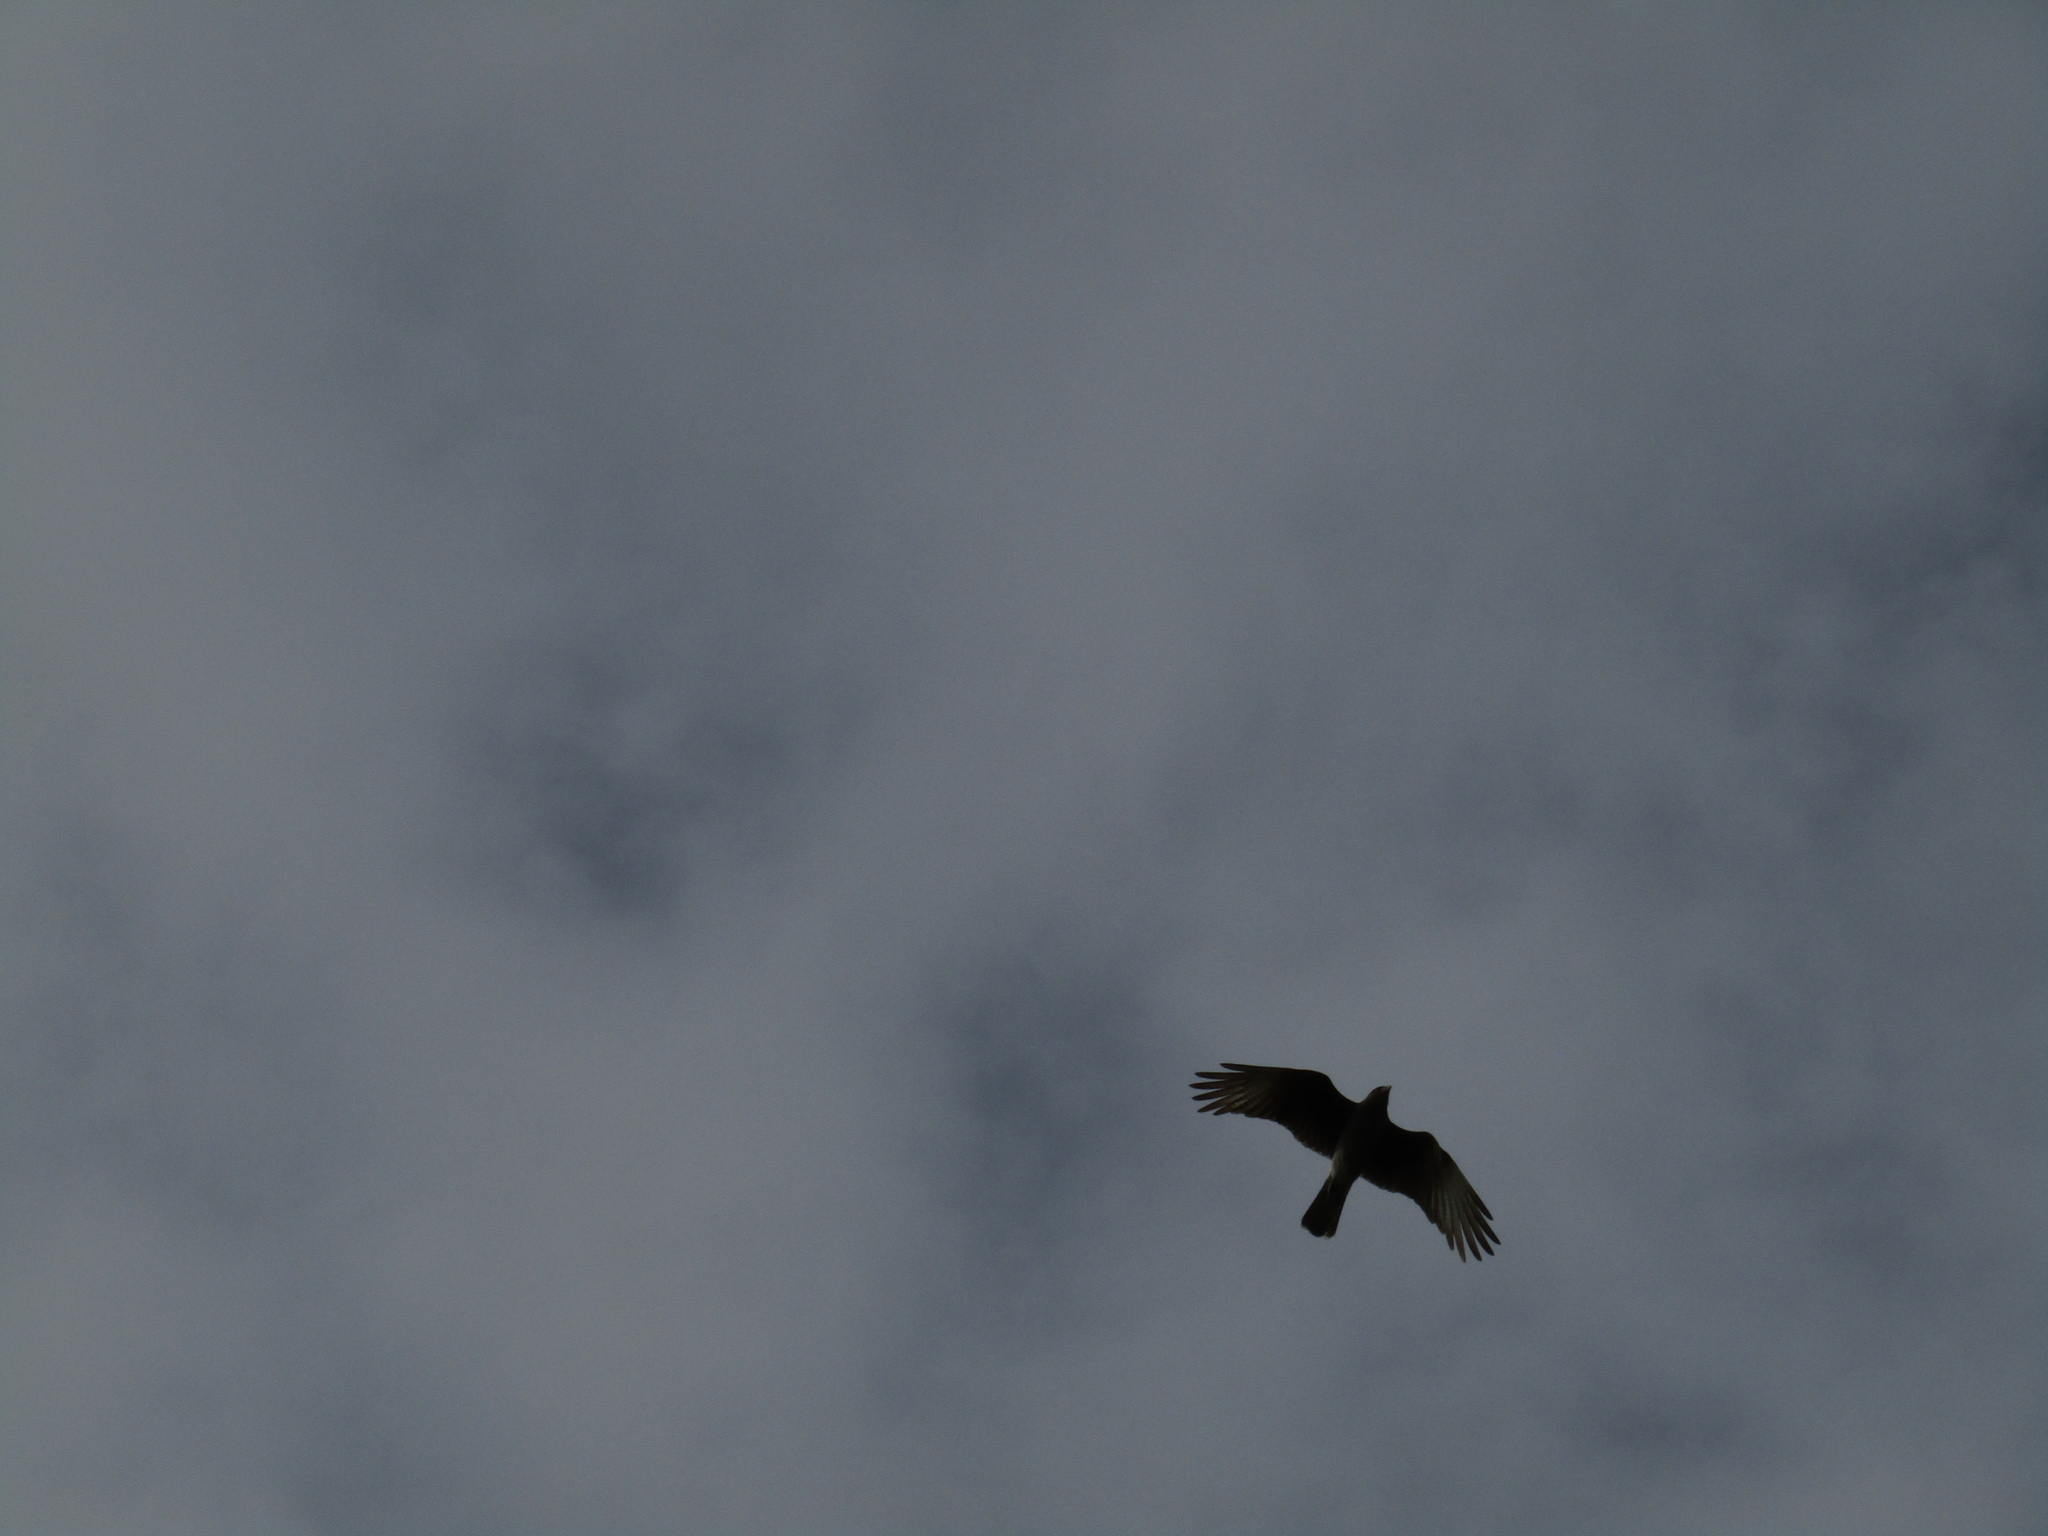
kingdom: Animalia
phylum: Chordata
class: Aves
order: Falconiformes
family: Falconidae
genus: Daptrius
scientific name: Daptrius
